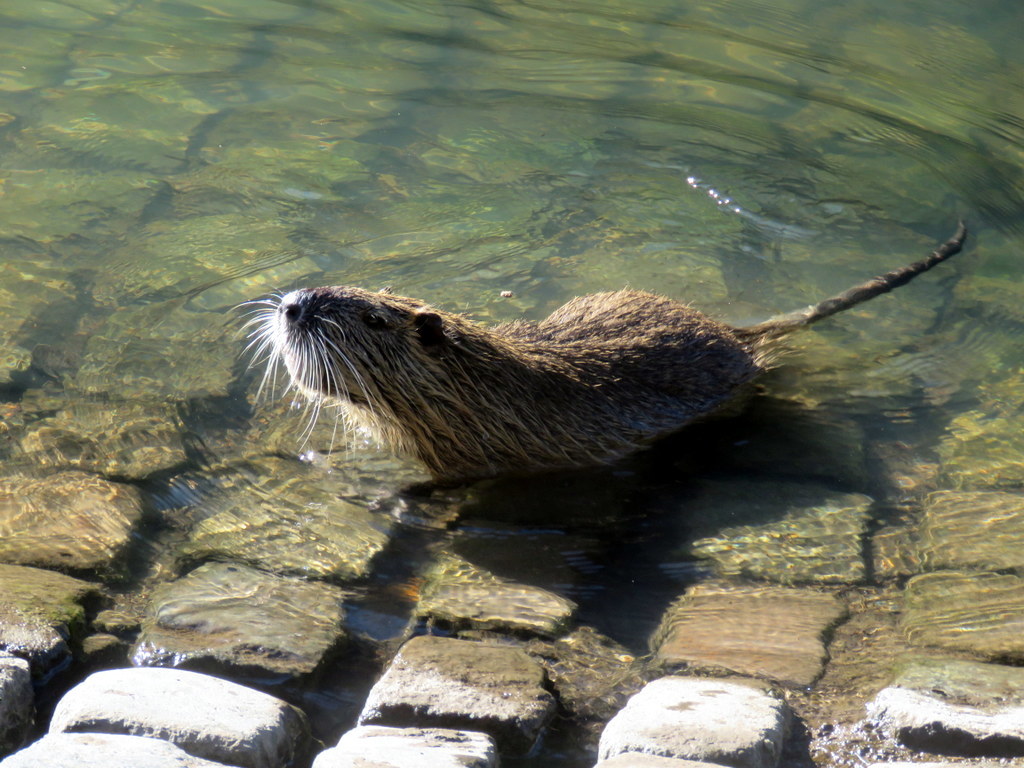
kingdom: Animalia
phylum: Chordata
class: Mammalia
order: Rodentia
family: Myocastoridae
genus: Myocastor
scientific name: Myocastor coypus
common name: Coypu
